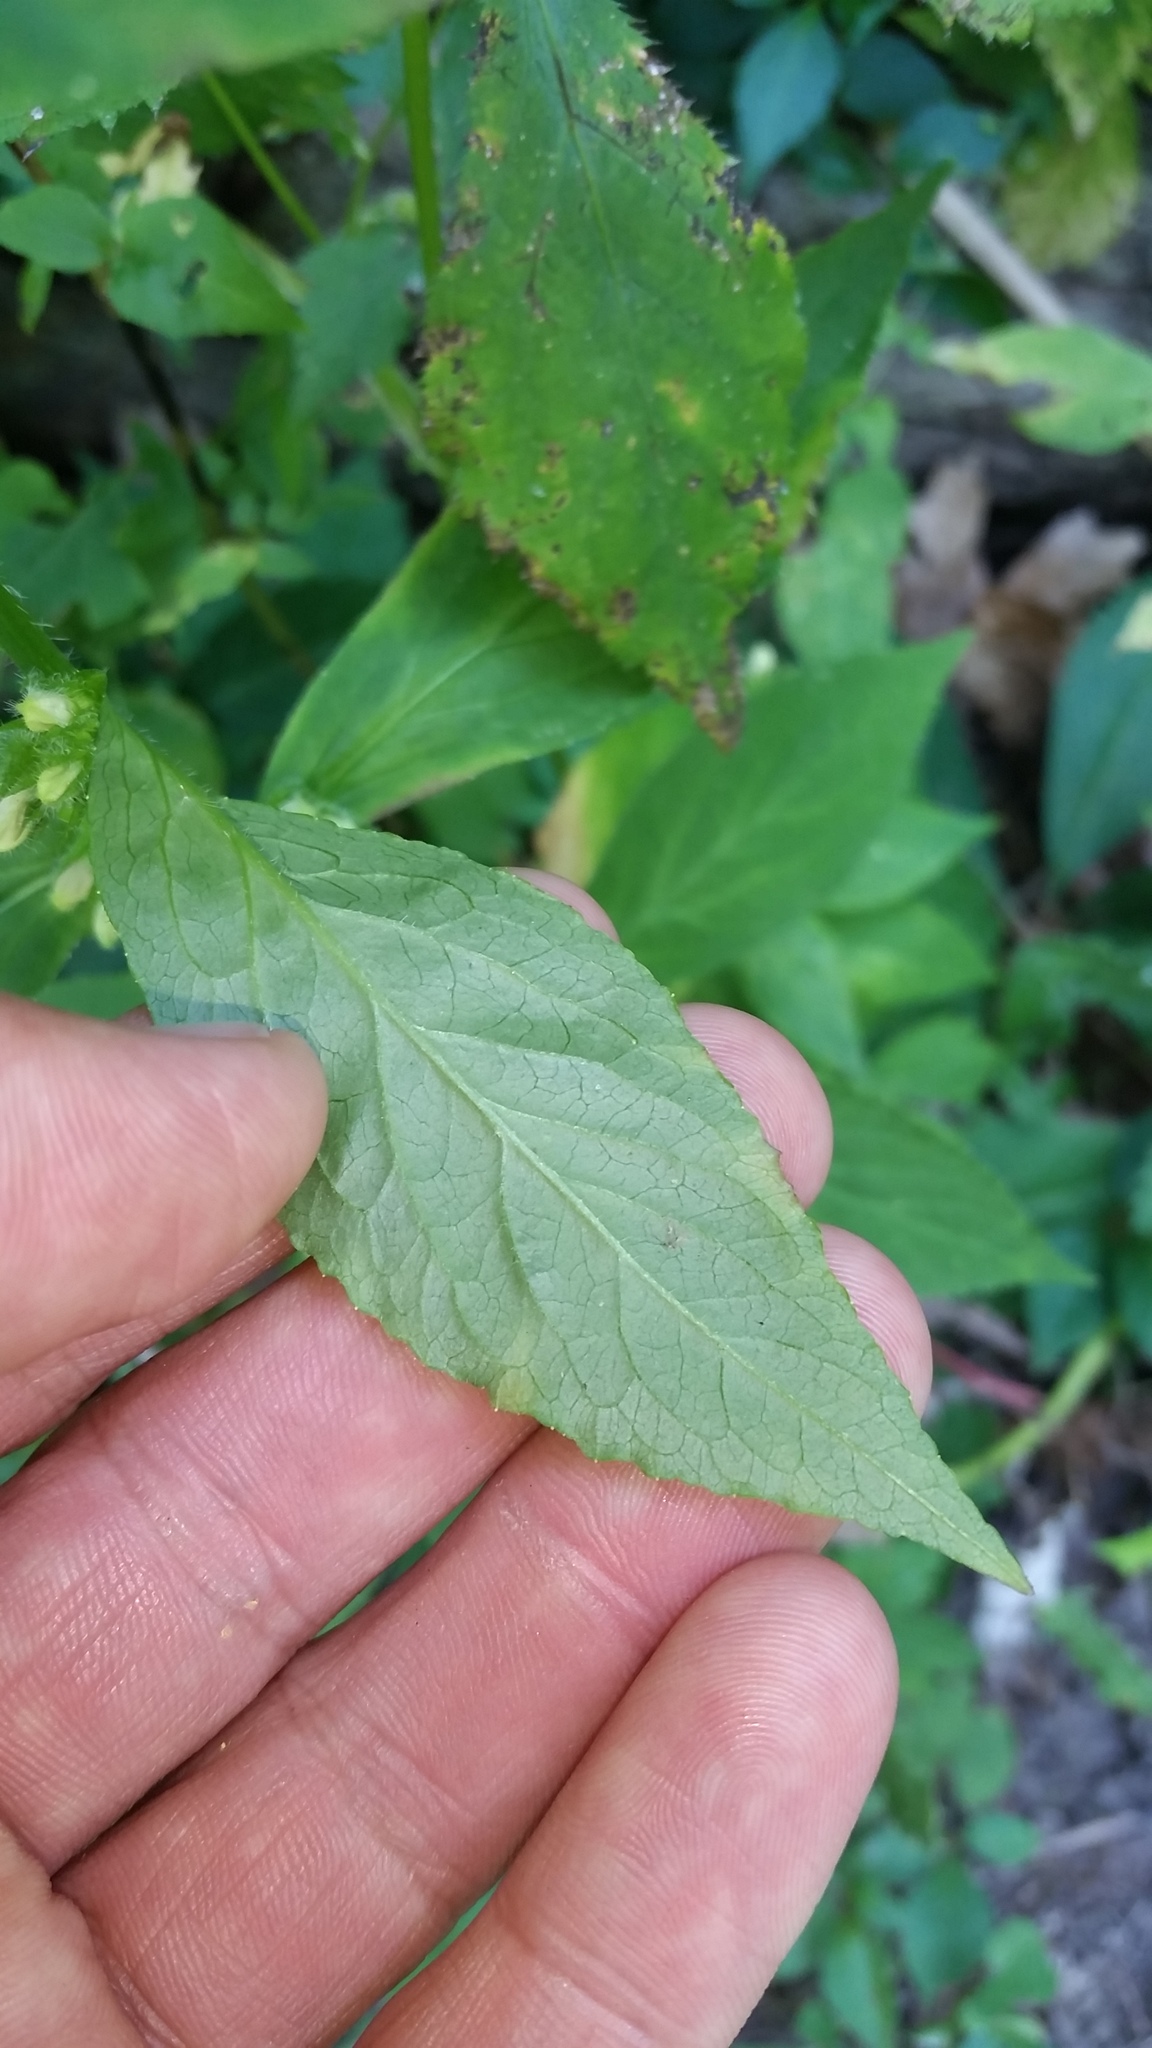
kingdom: Plantae
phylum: Tracheophyta
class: Magnoliopsida
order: Asterales
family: Campanulaceae
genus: Lobelia
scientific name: Lobelia siphilitica
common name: Great lobelia
